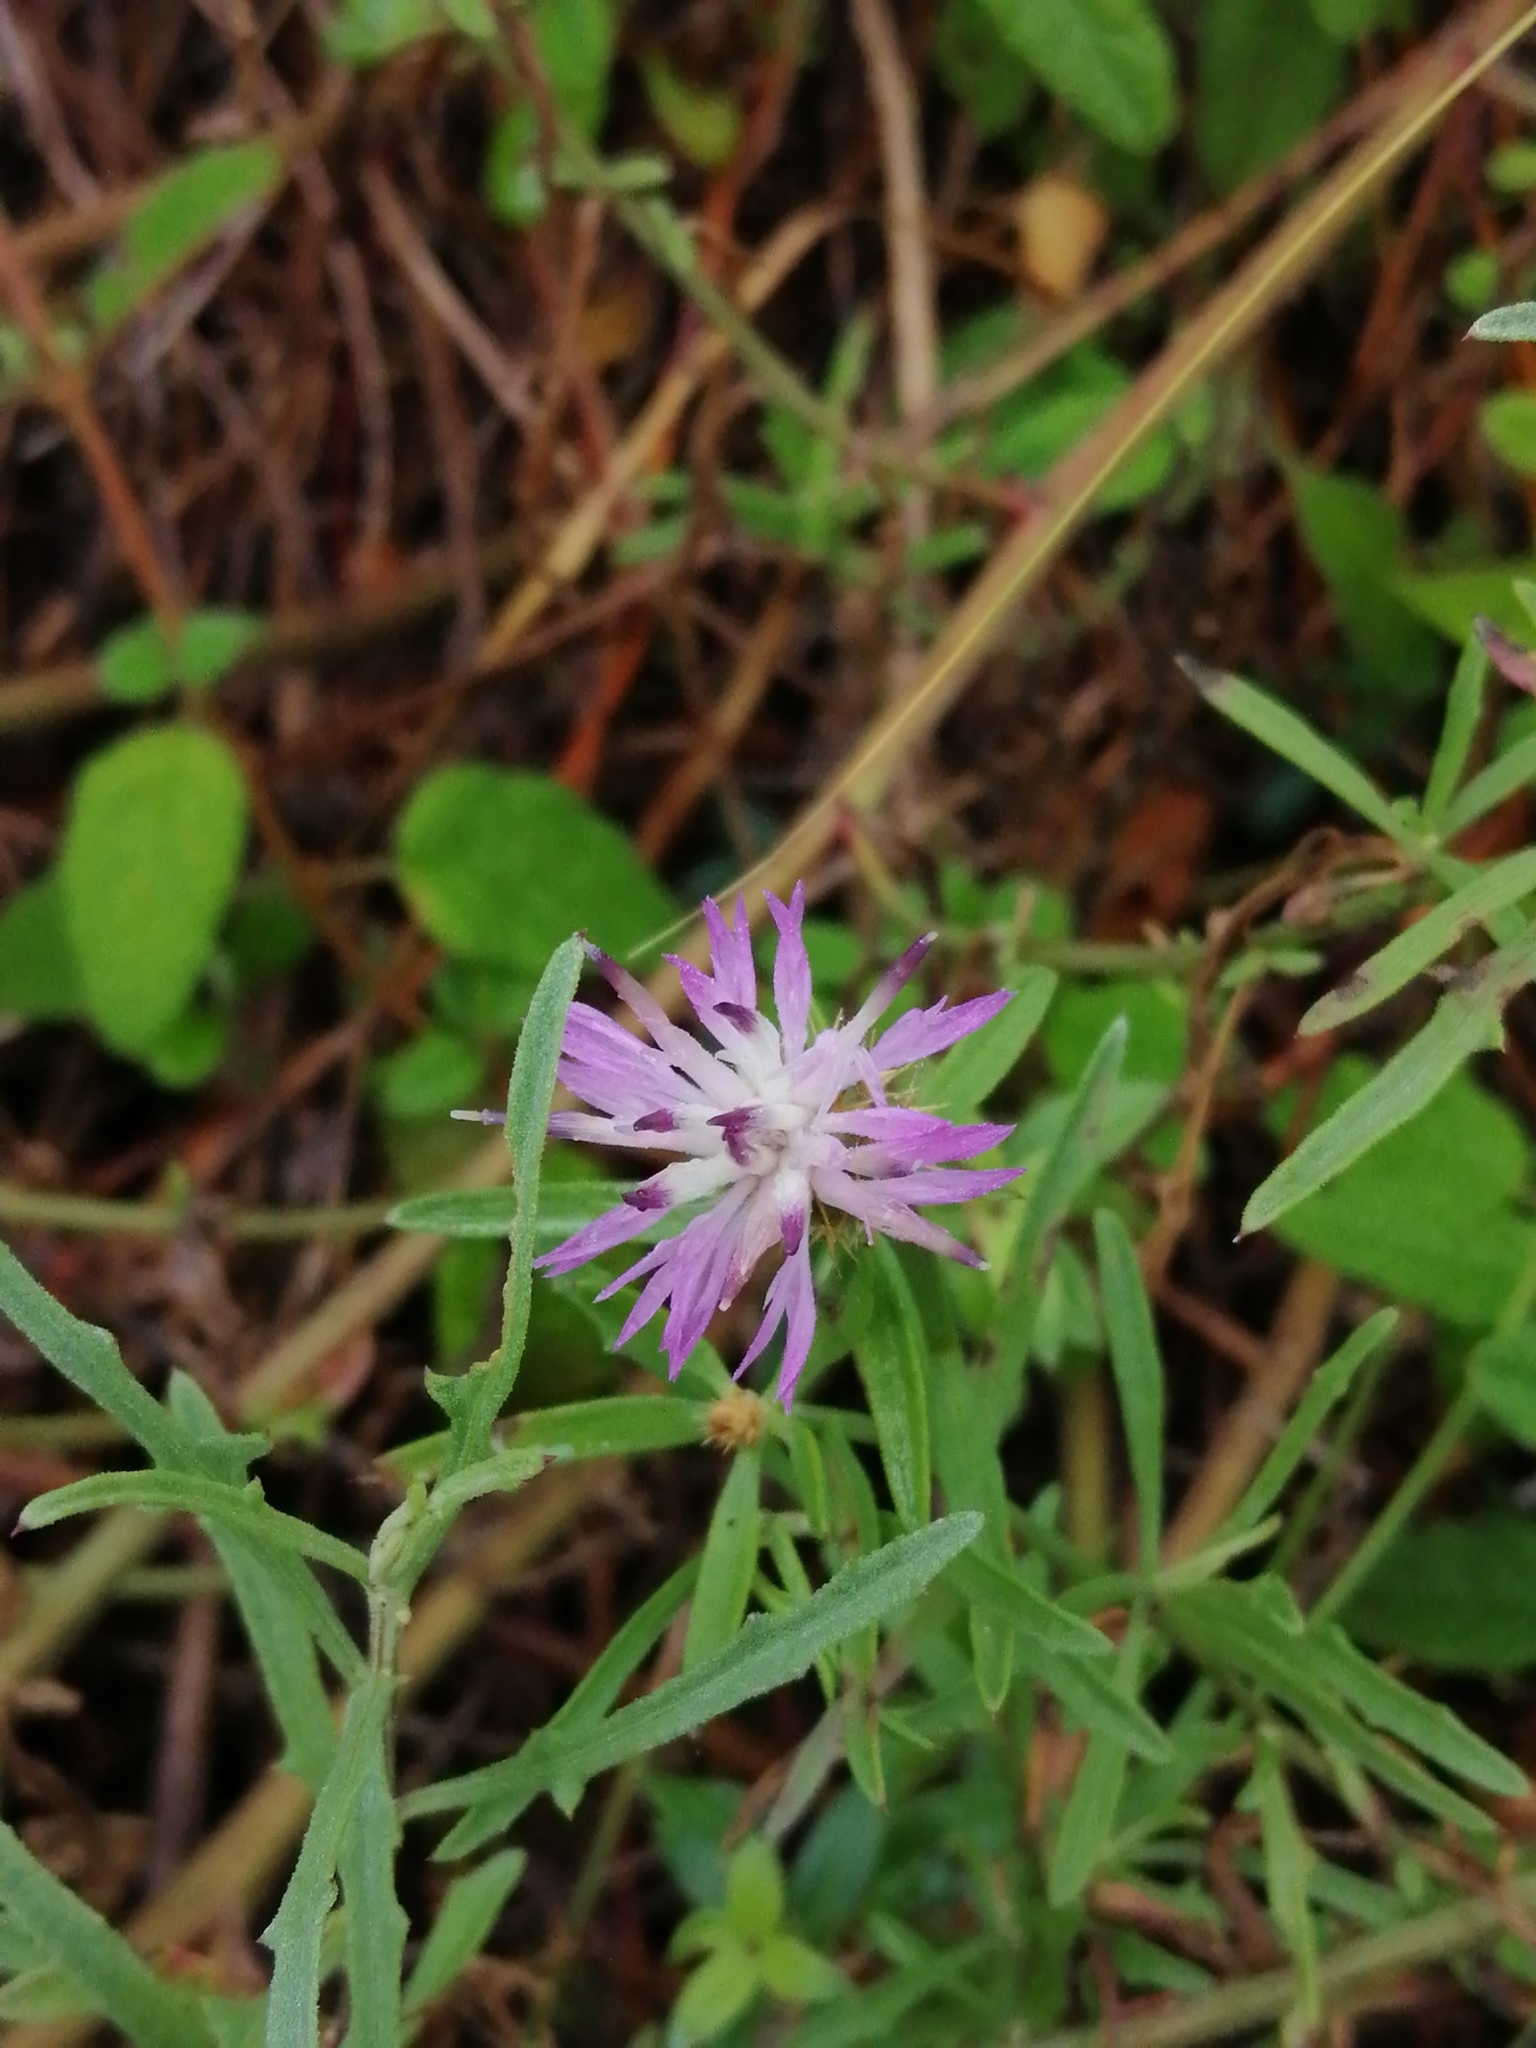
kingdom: Plantae
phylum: Tracheophyta
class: Magnoliopsida
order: Asterales
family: Asteraceae
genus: Centaurea
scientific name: Centaurea aspera
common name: Rough star-thistle
